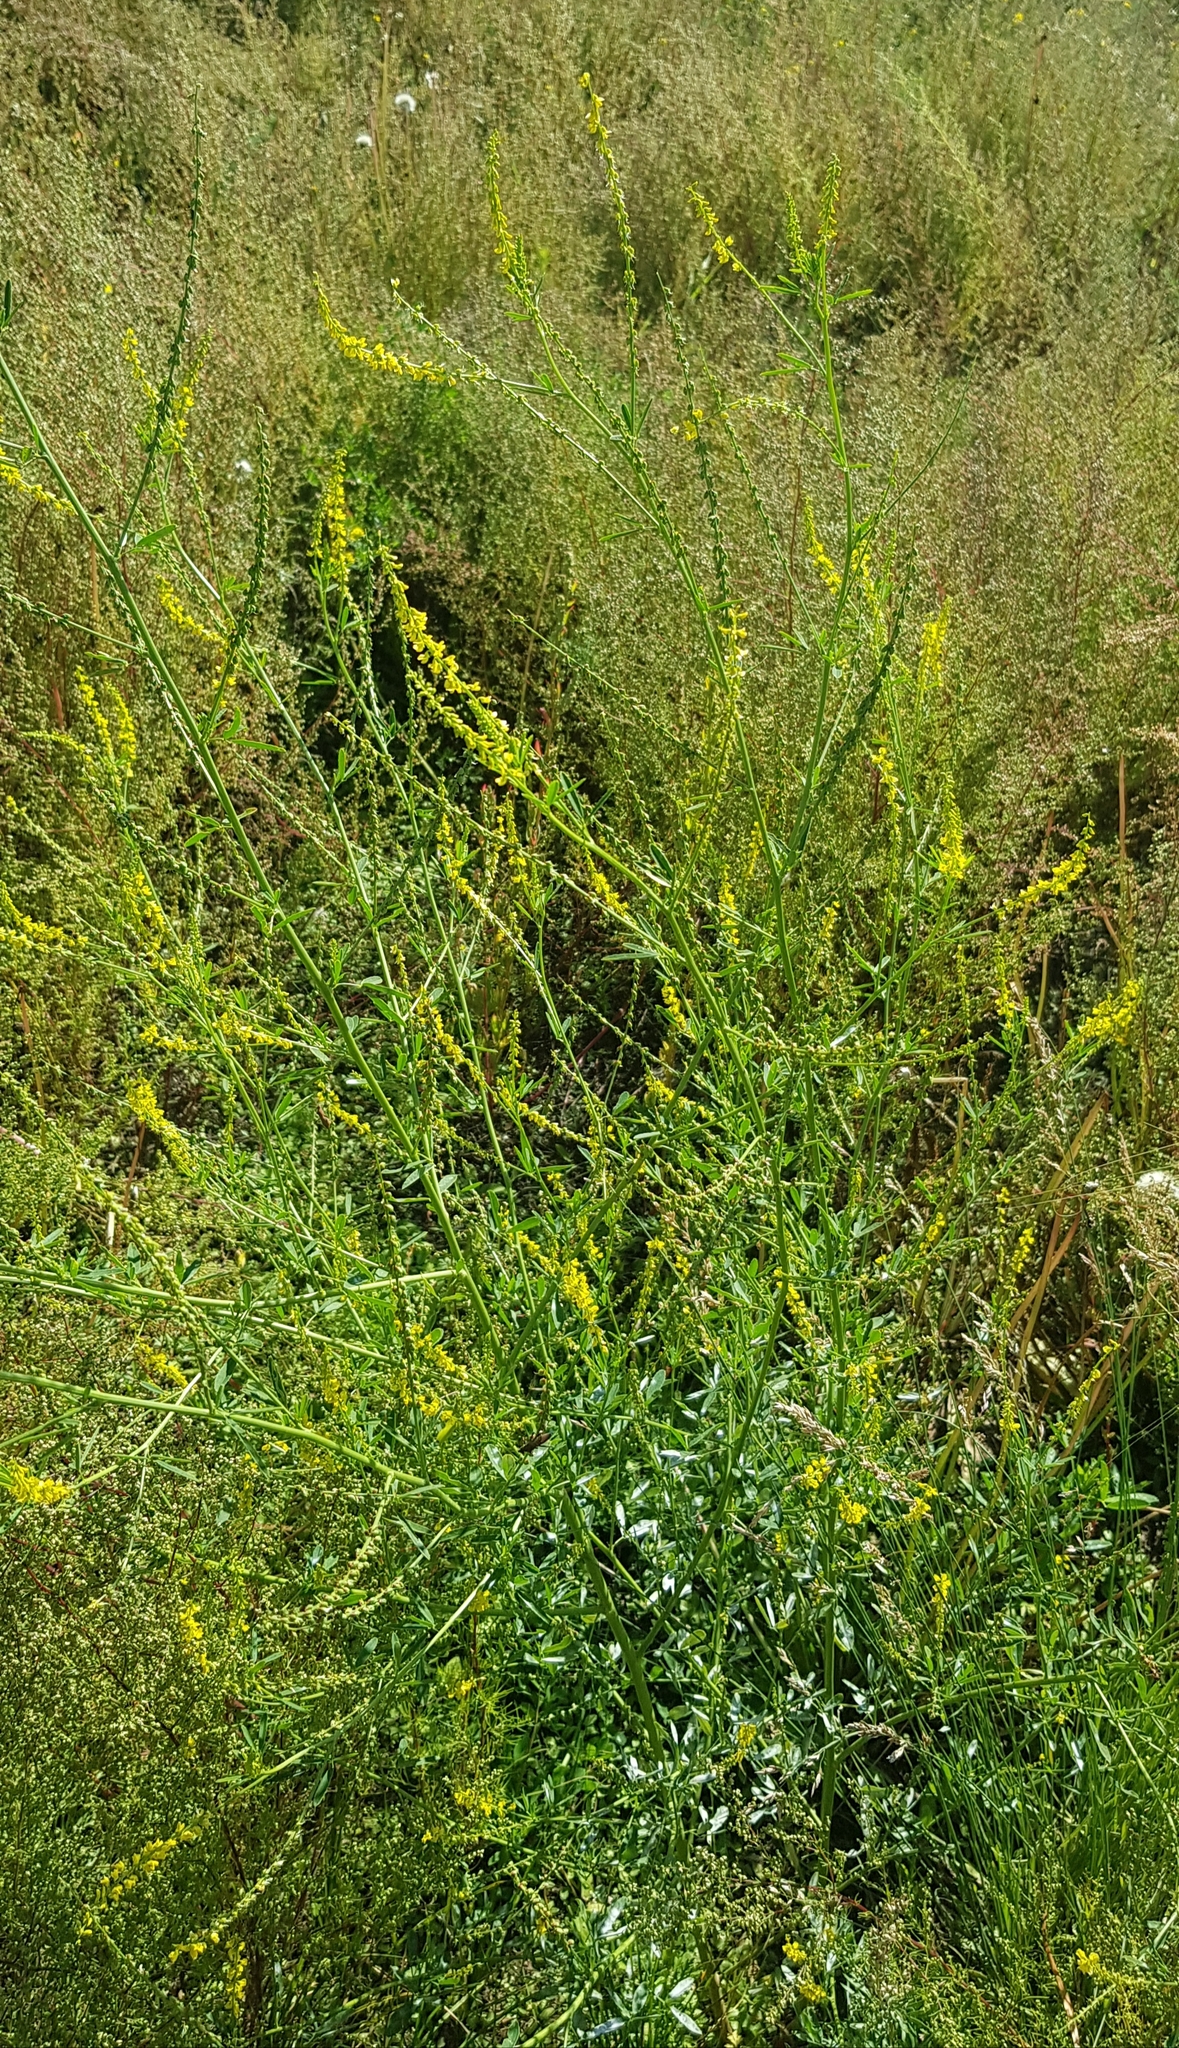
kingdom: Plantae
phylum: Tracheophyta
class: Magnoliopsida
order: Fabales
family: Fabaceae
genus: Melilotus
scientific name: Melilotus officinalis
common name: Sweetclover
